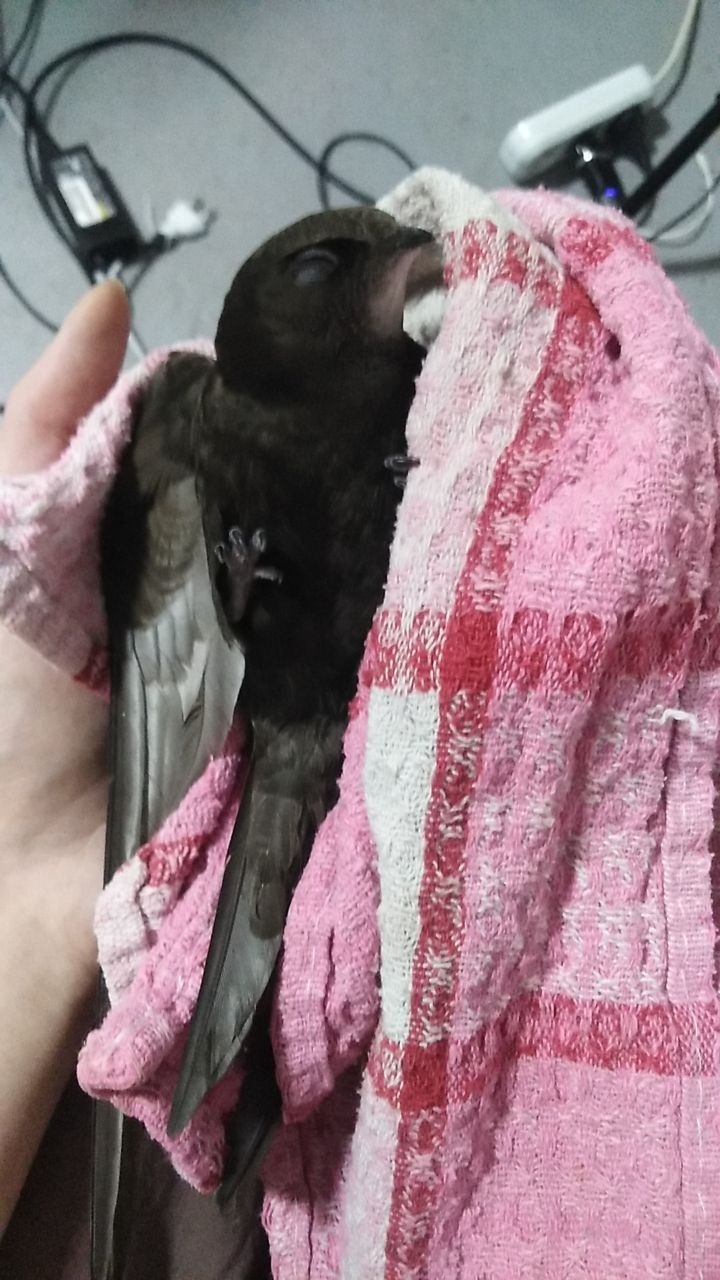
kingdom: Animalia
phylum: Chordata
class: Aves
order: Apodiformes
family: Apodidae
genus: Apus
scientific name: Apus apus
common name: Common swift
